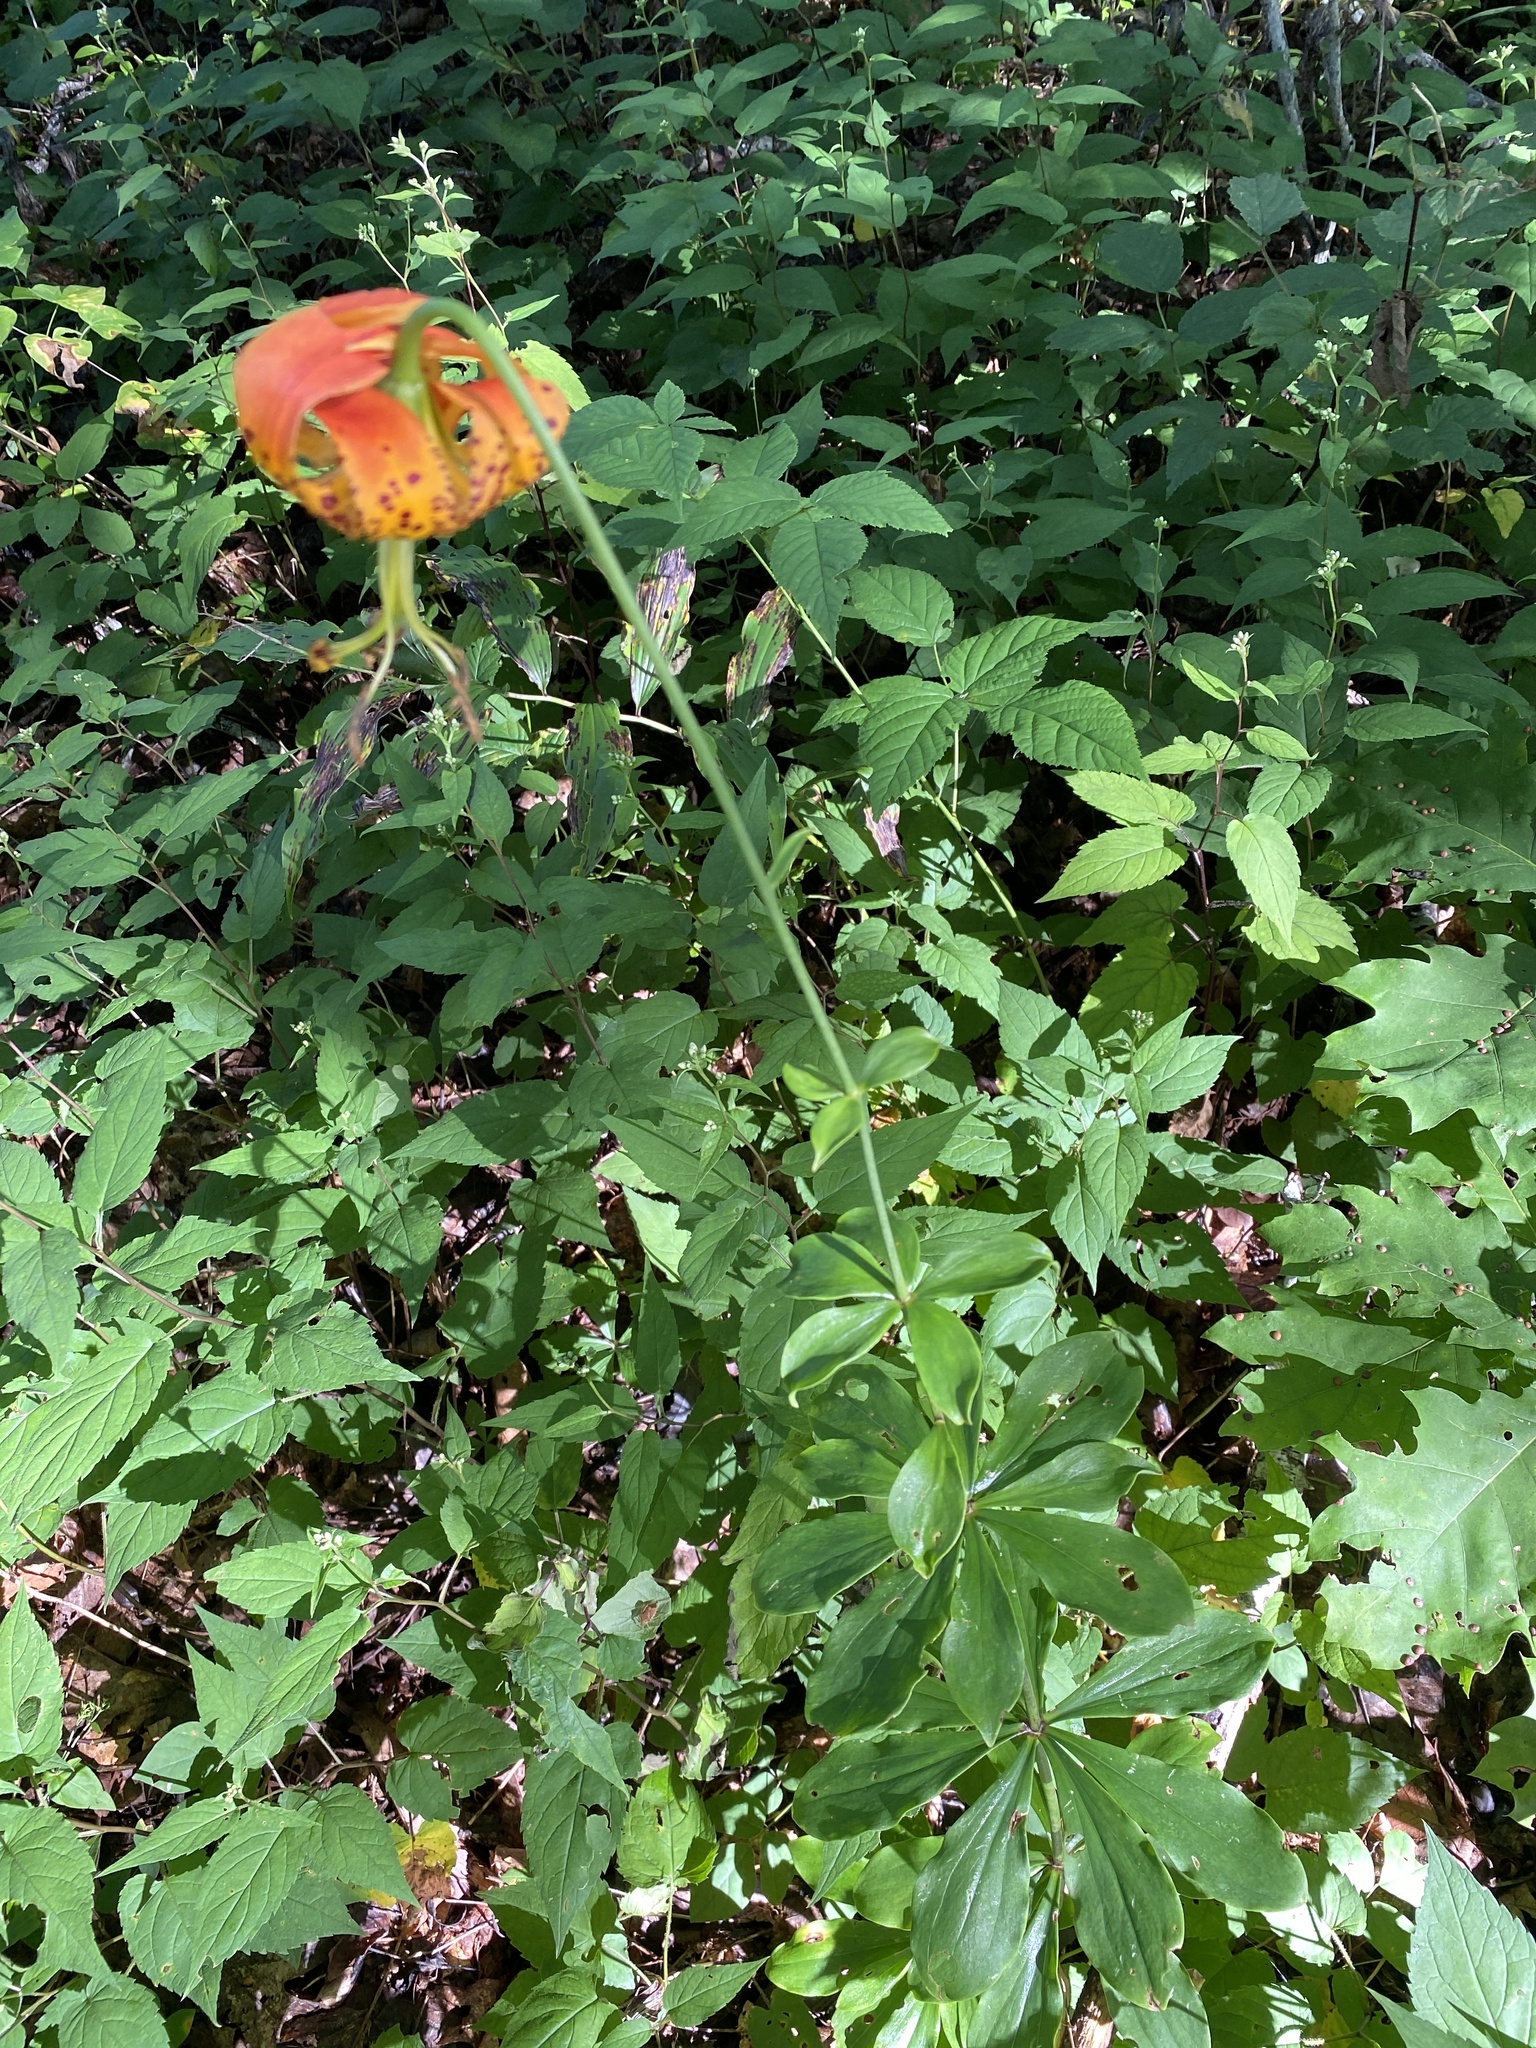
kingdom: Plantae
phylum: Tracheophyta
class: Liliopsida
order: Liliales
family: Liliaceae
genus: Lilium
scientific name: Lilium michauxii
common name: Carolina lily
